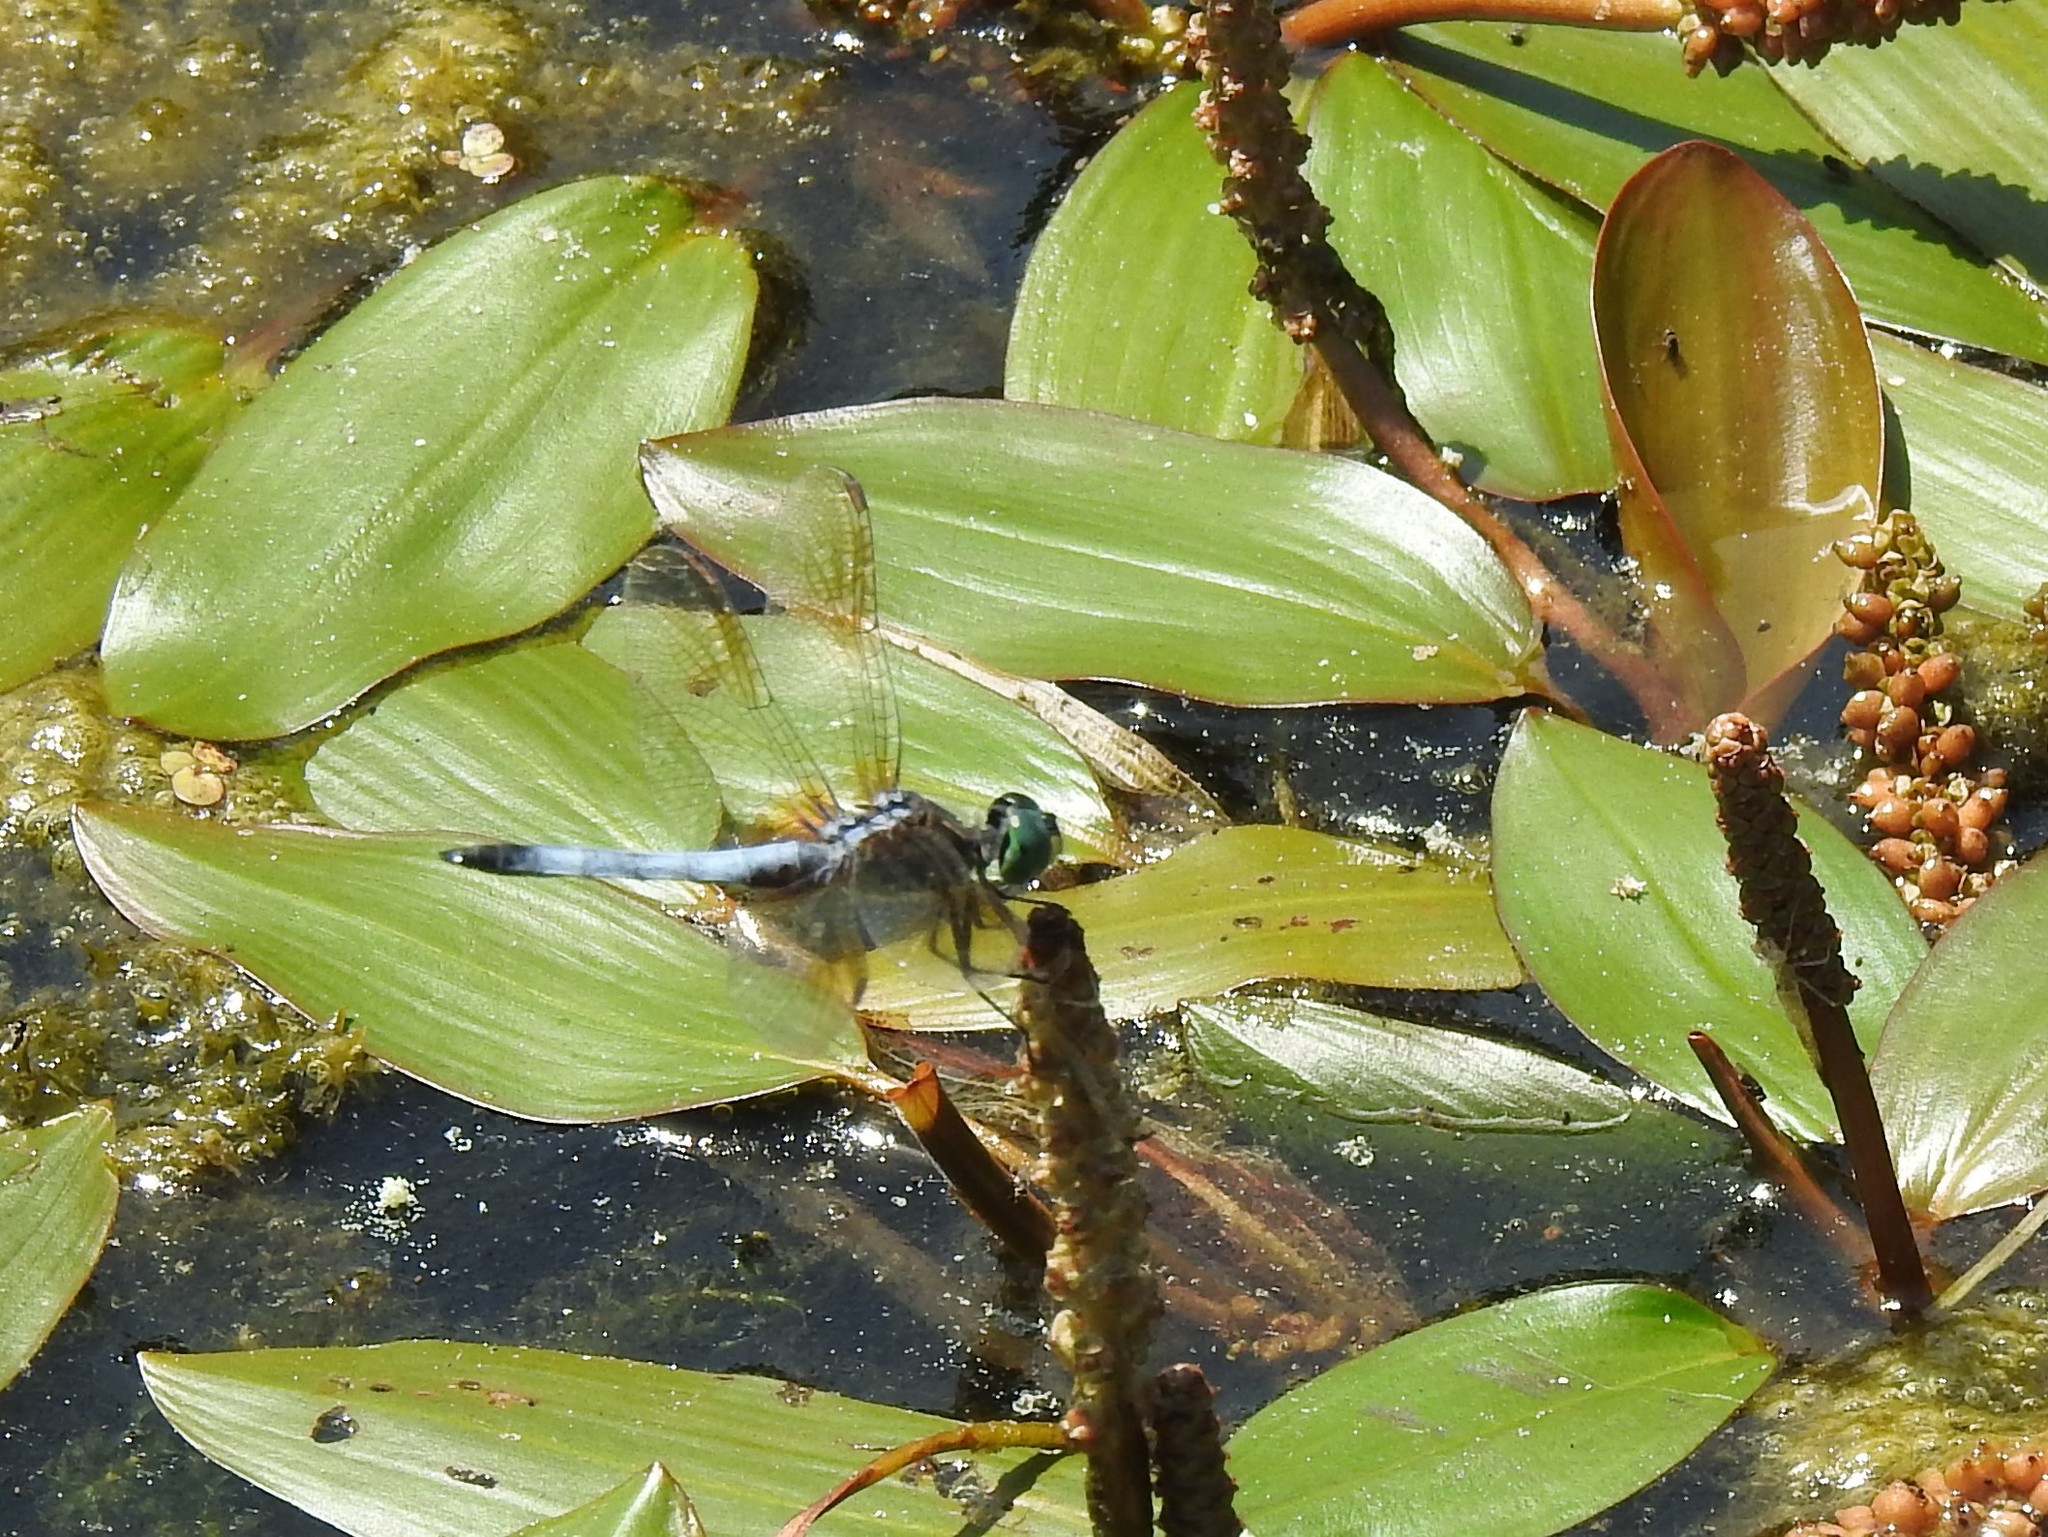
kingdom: Animalia
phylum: Arthropoda
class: Insecta
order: Odonata
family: Libellulidae
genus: Pachydiplax
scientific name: Pachydiplax longipennis
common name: Blue dasher
